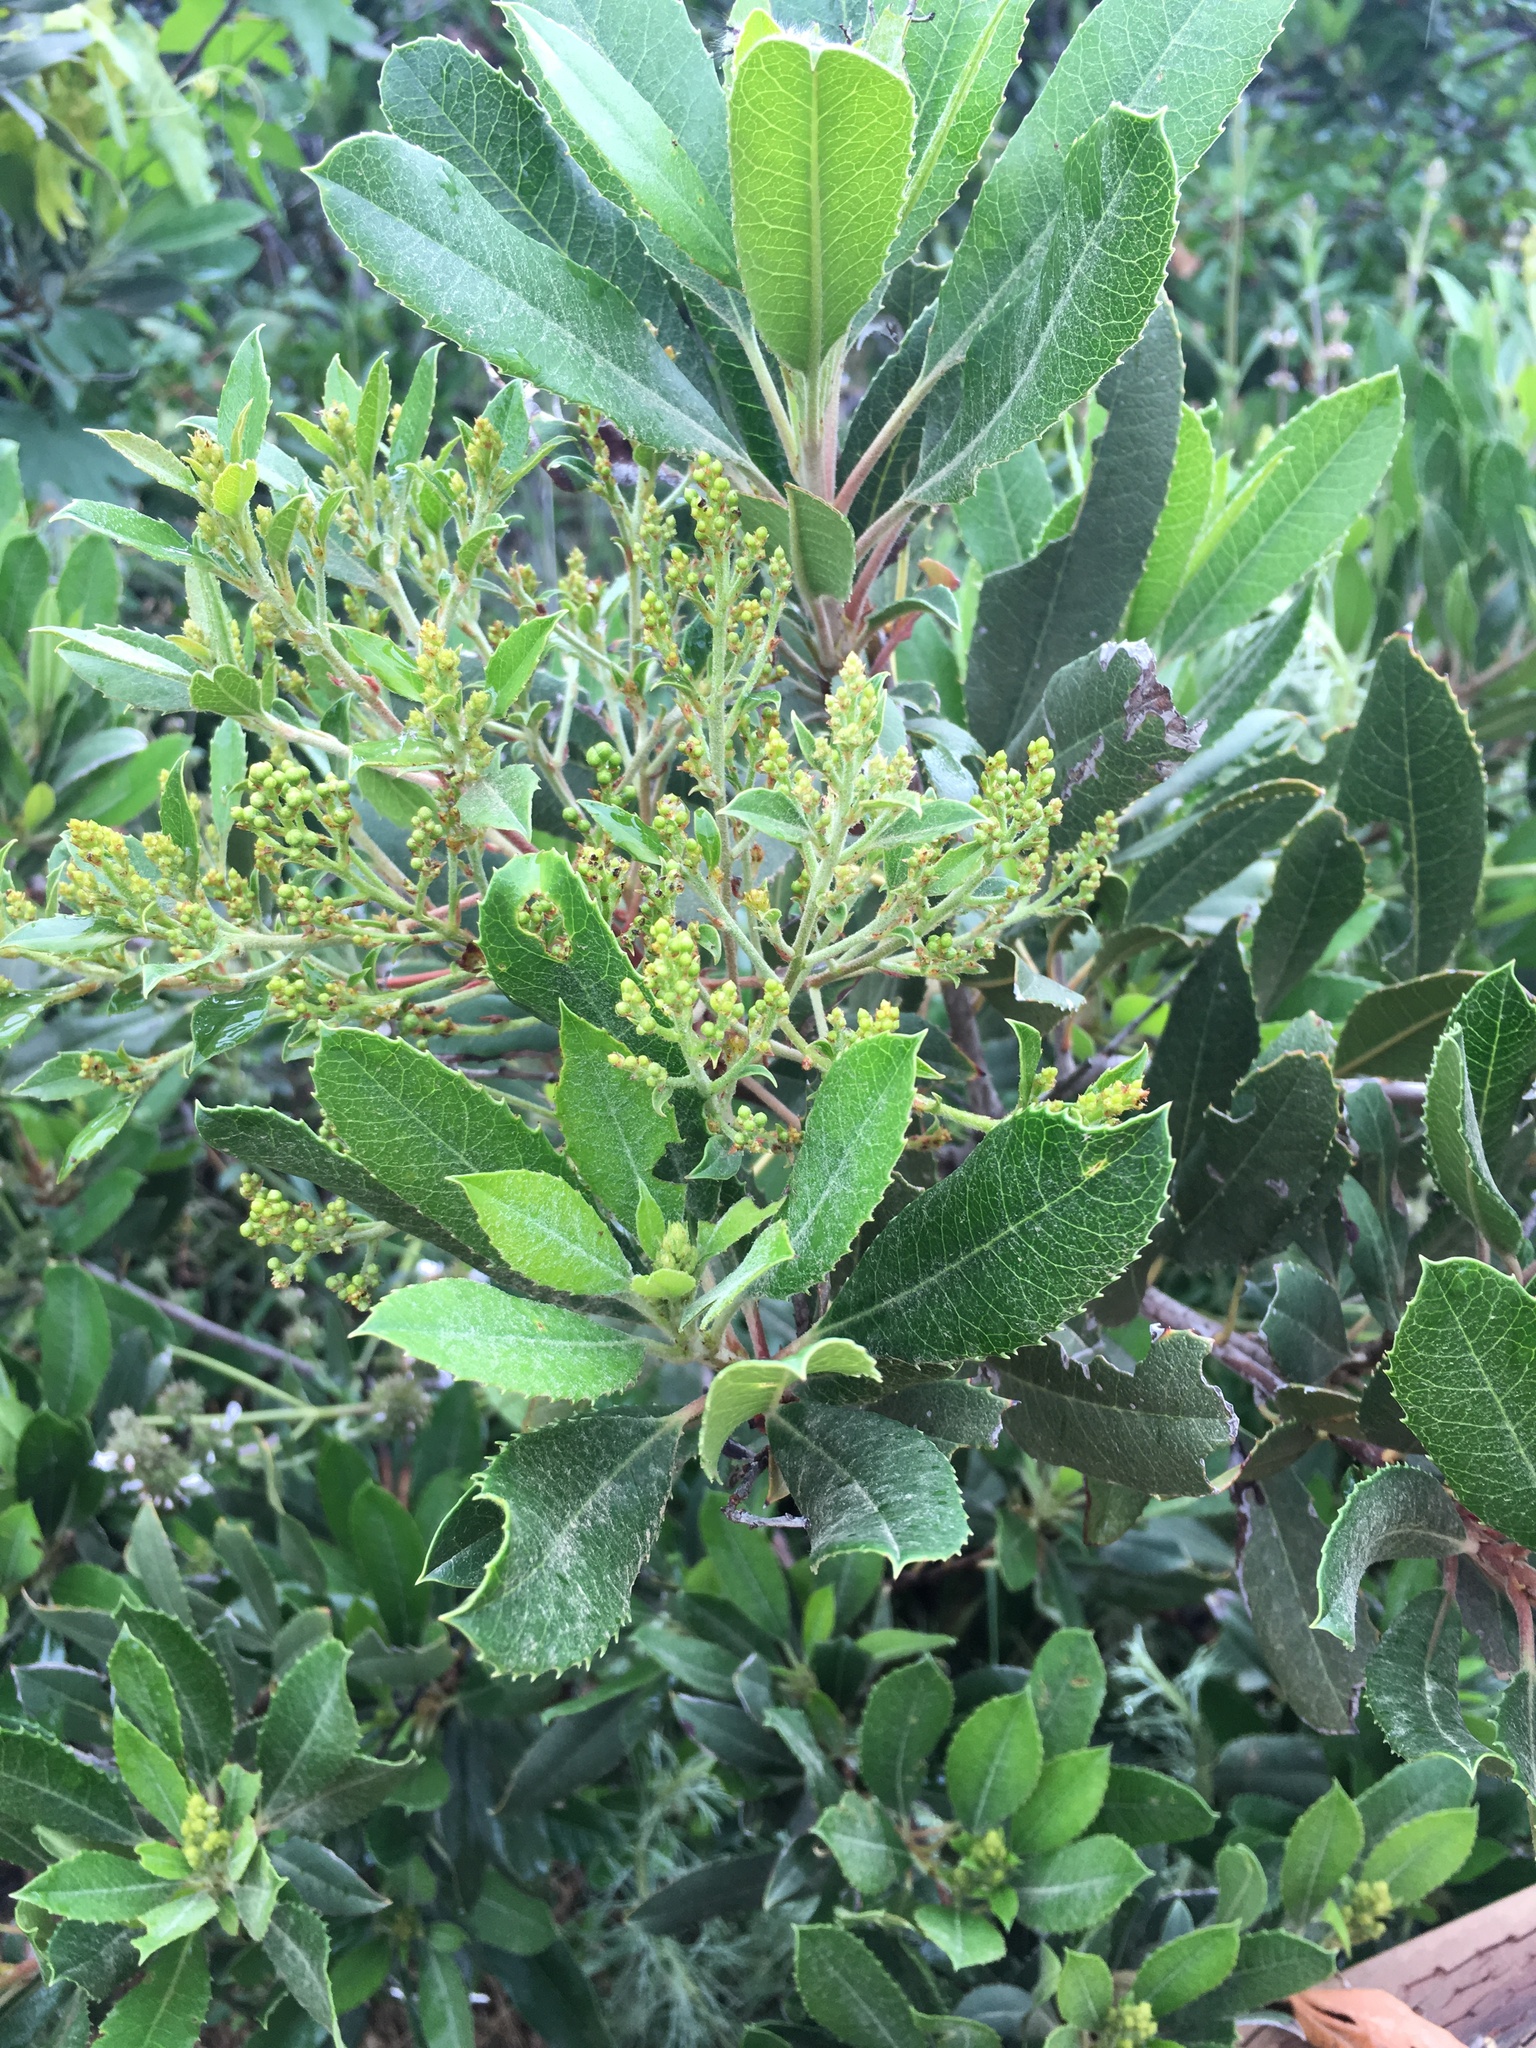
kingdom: Plantae
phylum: Tracheophyta
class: Magnoliopsida
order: Rosales
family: Rosaceae
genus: Heteromeles
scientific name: Heteromeles arbutifolia
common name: California-holly
